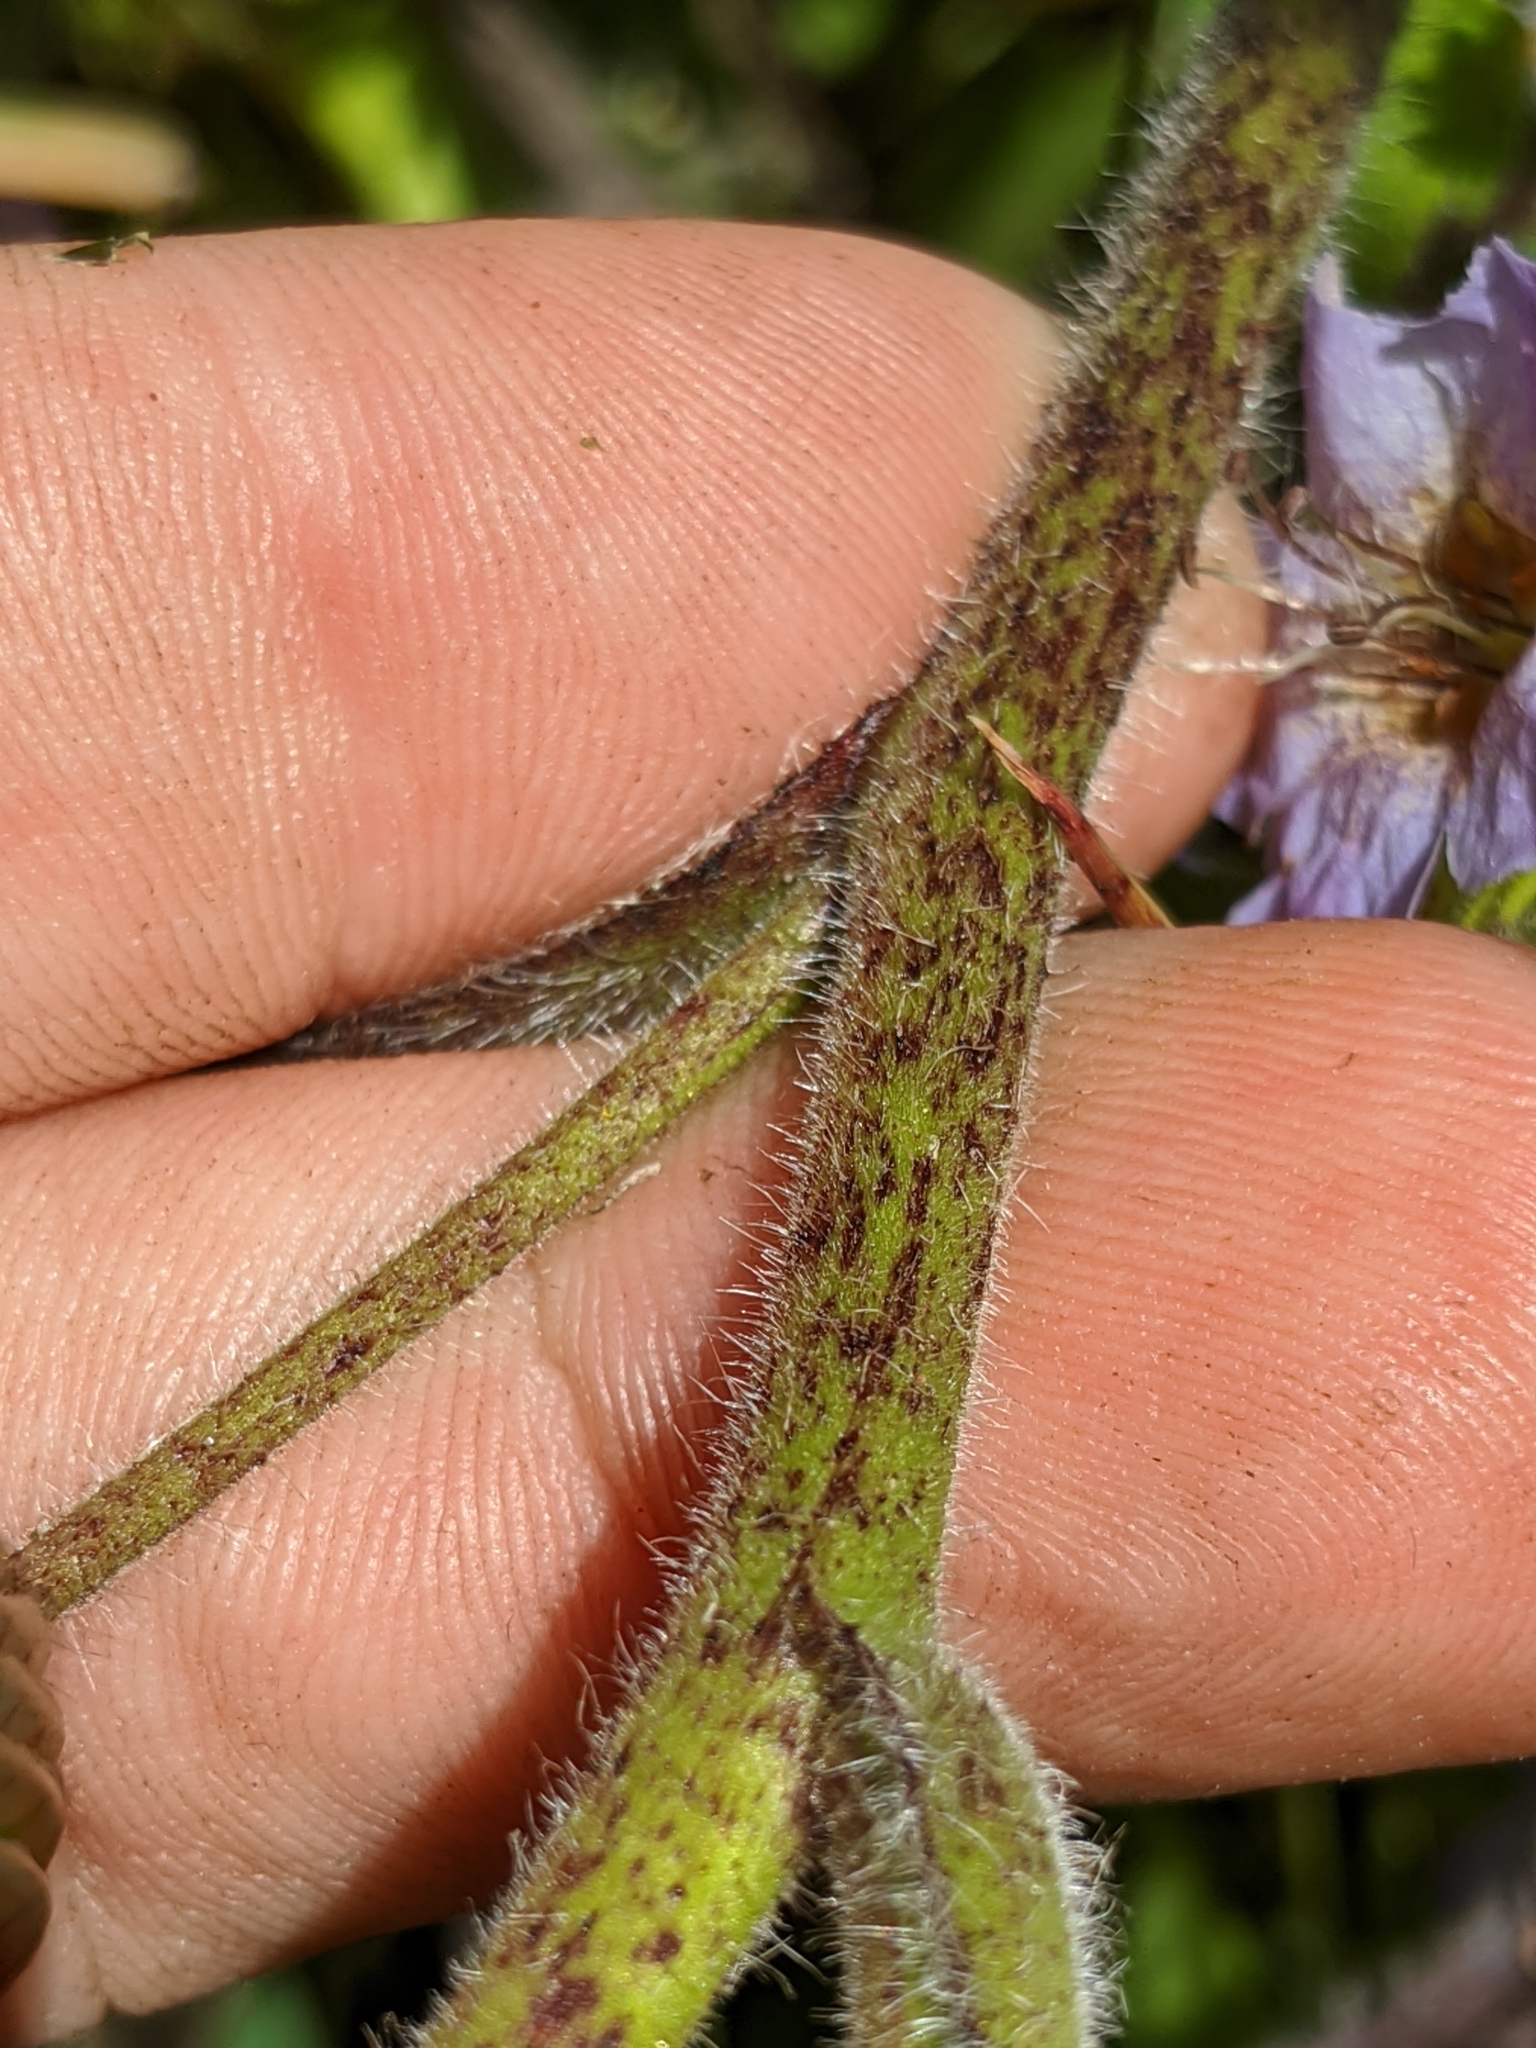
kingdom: Plantae
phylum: Tracheophyta
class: Magnoliopsida
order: Boraginales
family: Hydrophyllaceae
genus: Phacelia
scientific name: Phacelia bolanderi
